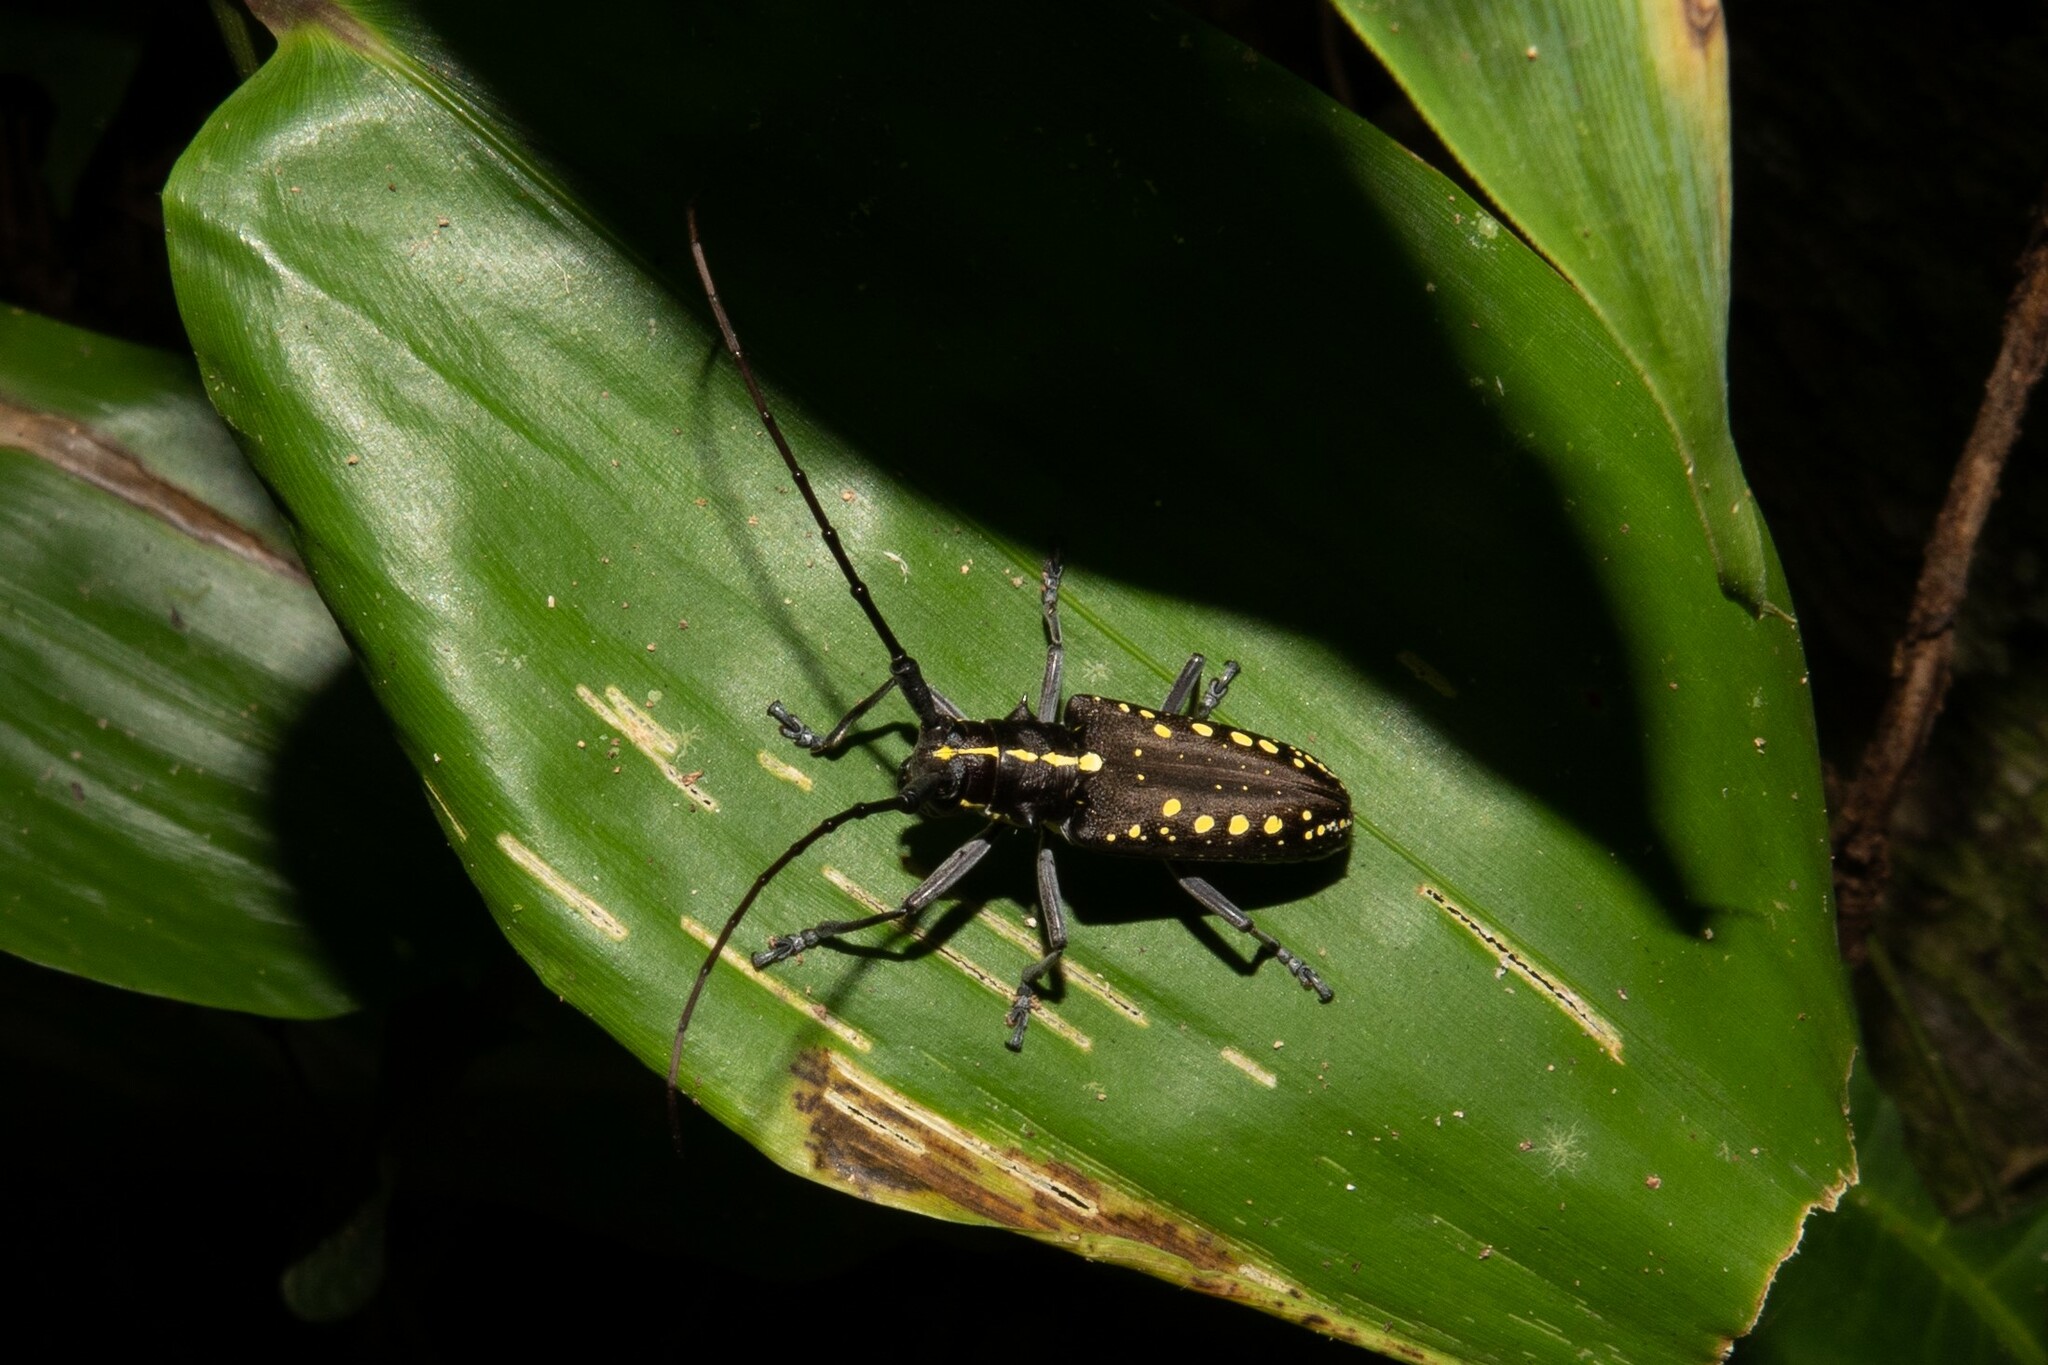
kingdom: Animalia
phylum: Arthropoda
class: Insecta
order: Coleoptera
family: Cerambycidae
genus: Taeniotes
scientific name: Taeniotes orbignyi
